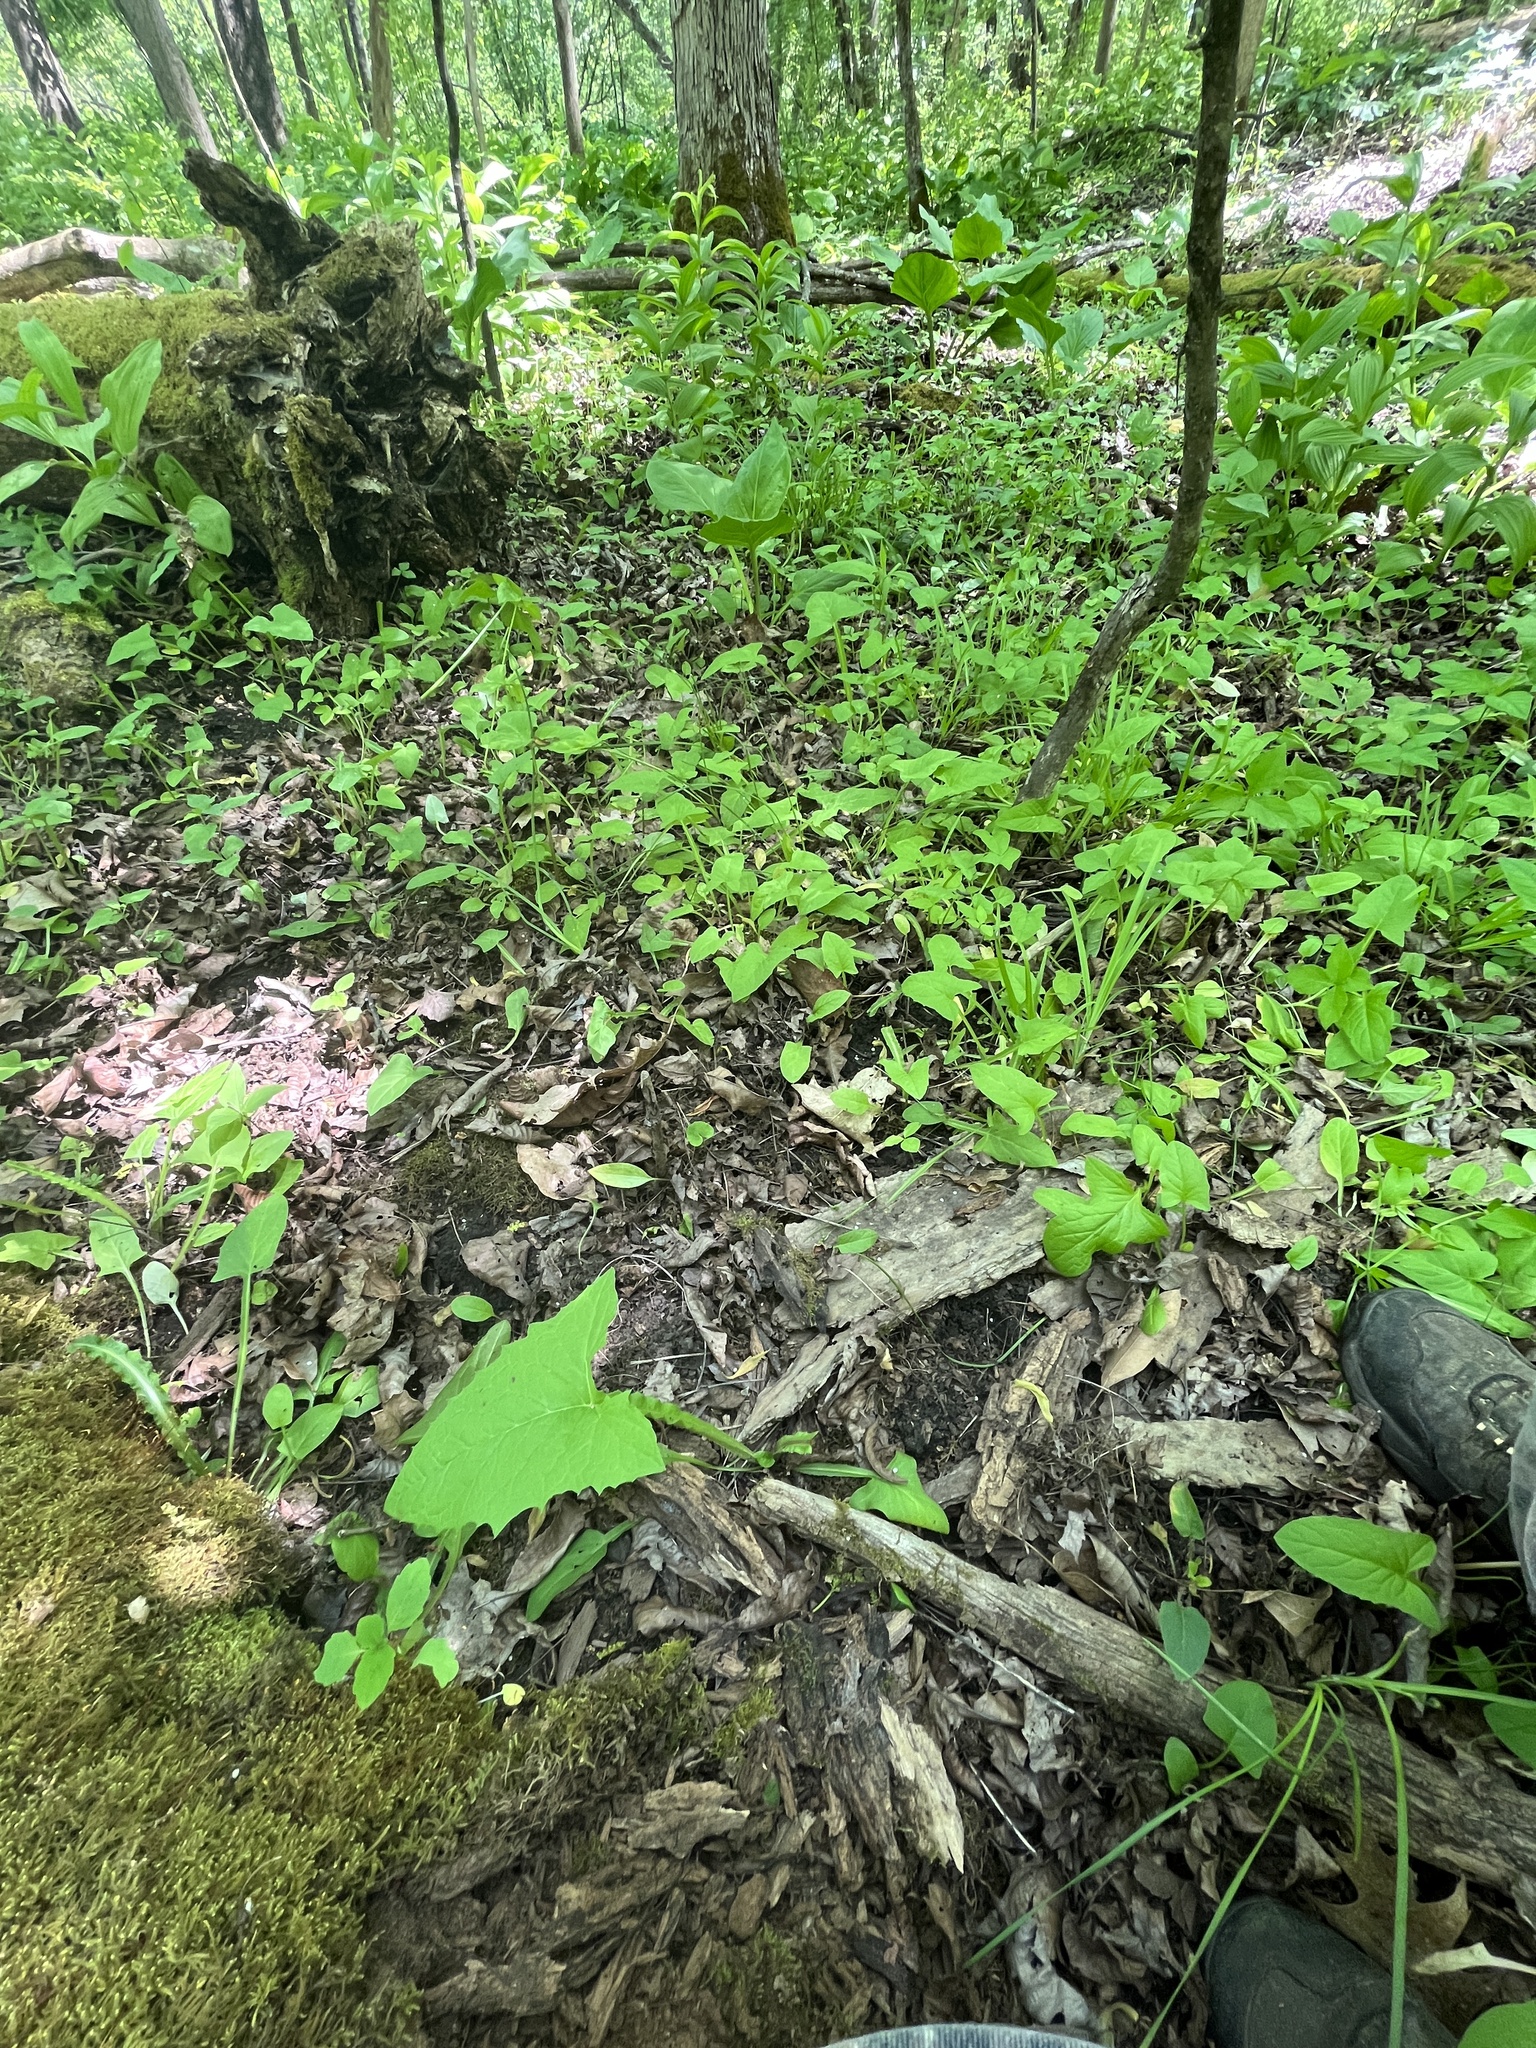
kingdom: Plantae
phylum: Tracheophyta
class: Magnoliopsida
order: Asterales
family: Asteraceae
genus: Nabalus
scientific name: Nabalus crepidineus
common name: Nodding rattlesnakeroot
